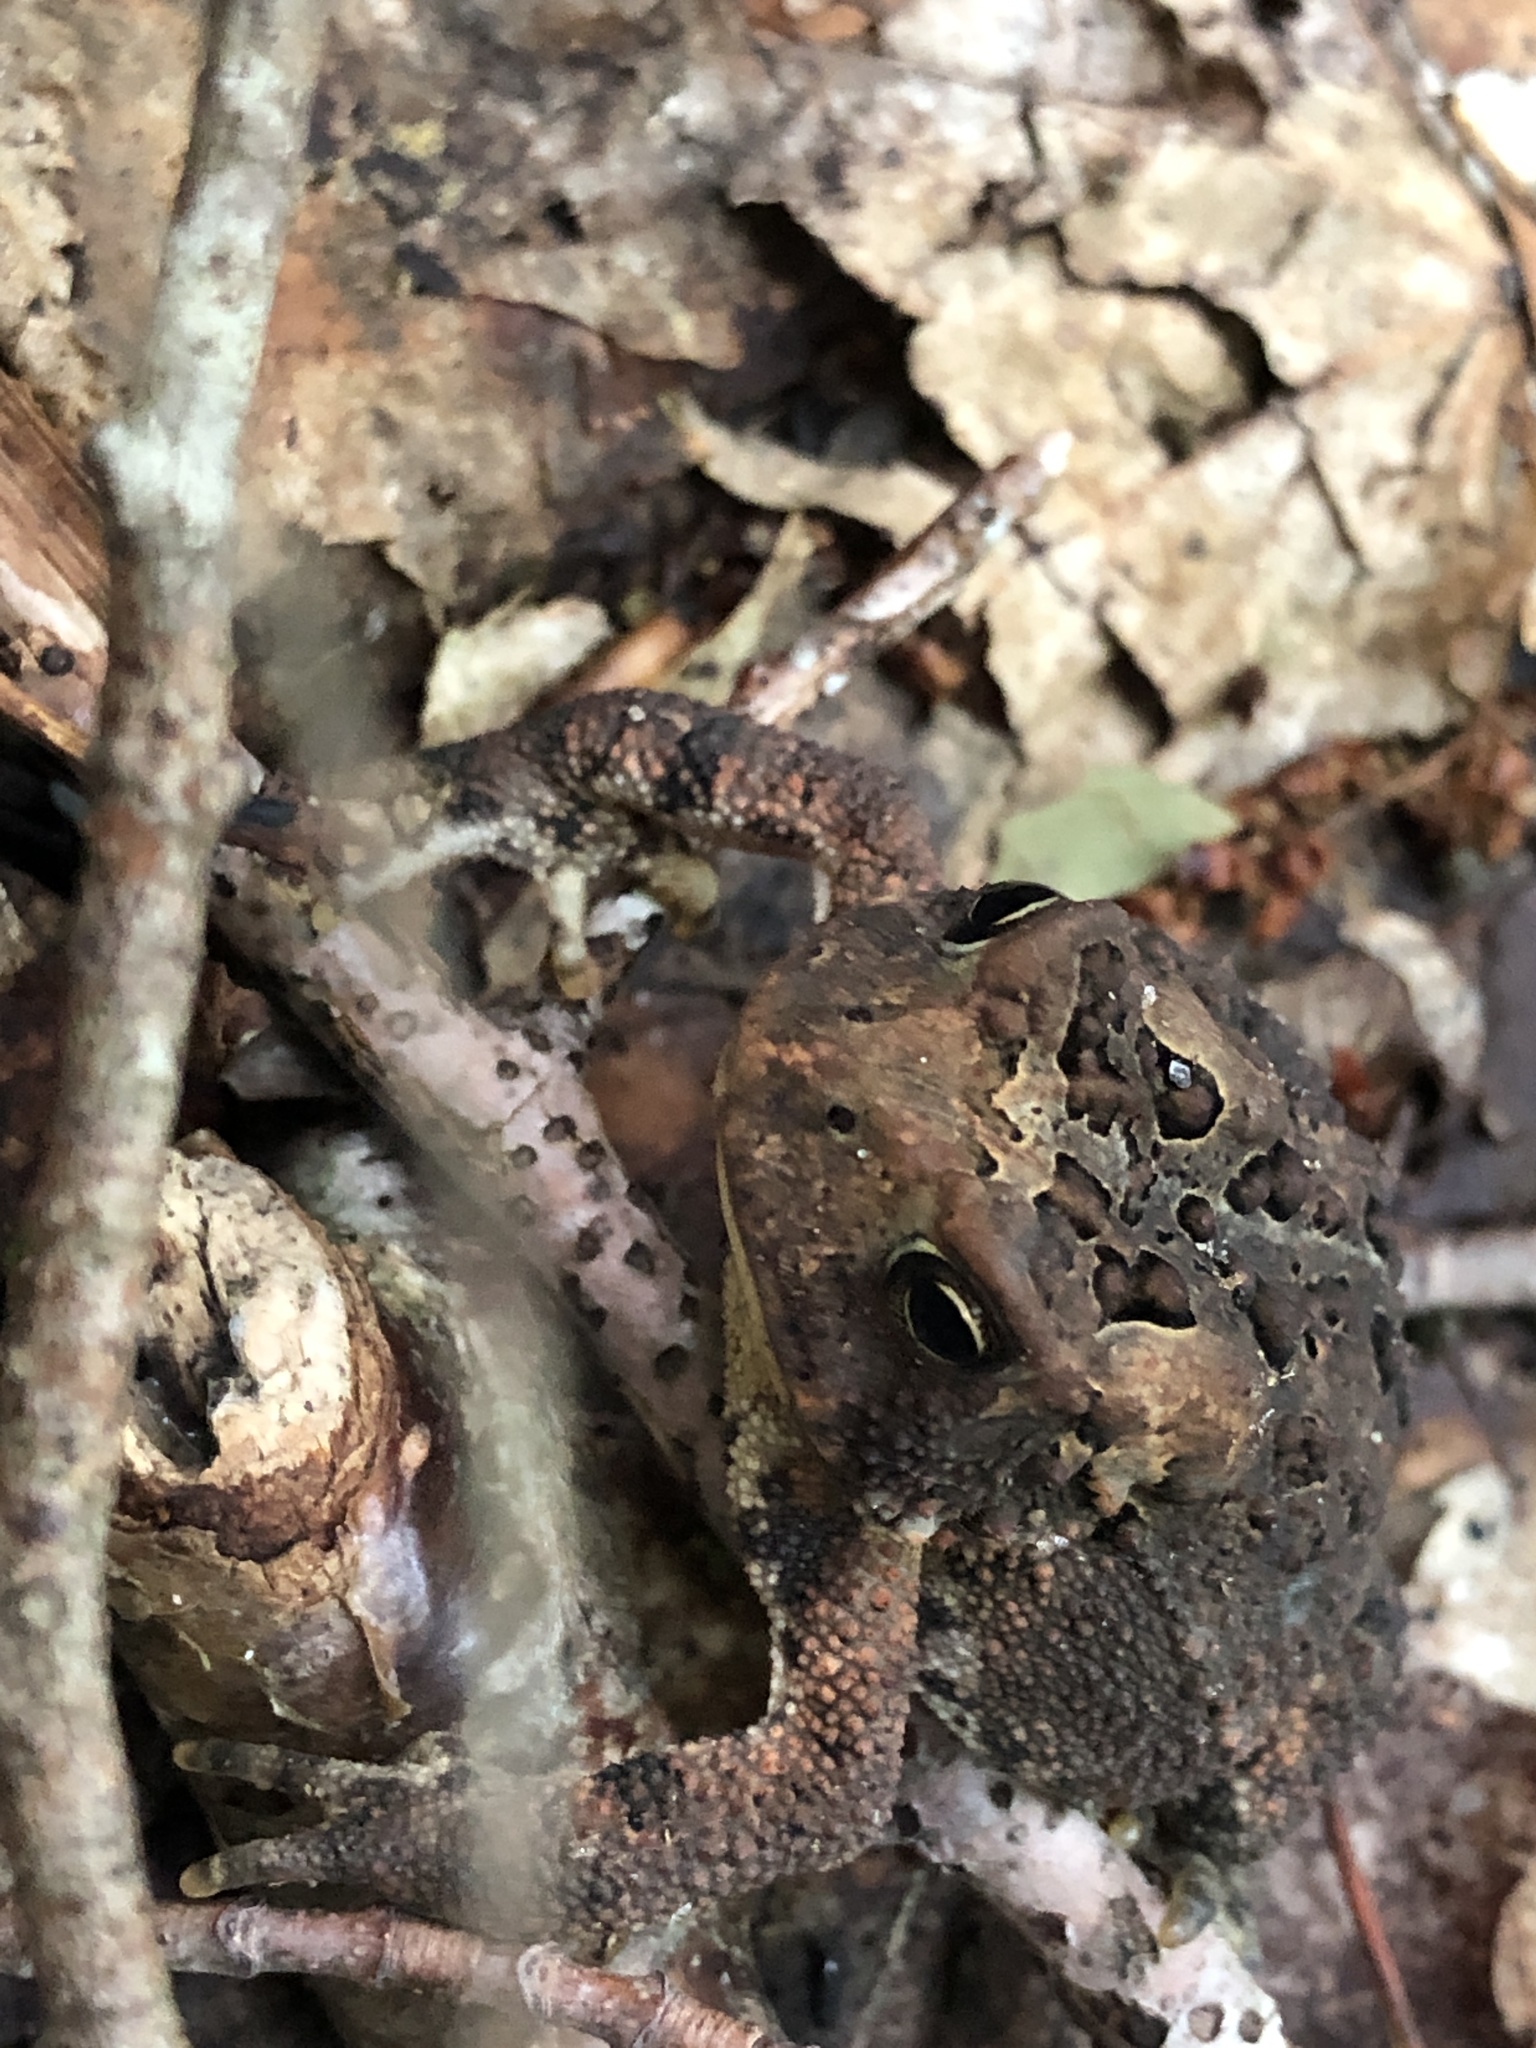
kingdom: Animalia
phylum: Chordata
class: Amphibia
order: Anura
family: Bufonidae
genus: Anaxyrus
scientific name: Anaxyrus americanus
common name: American toad
